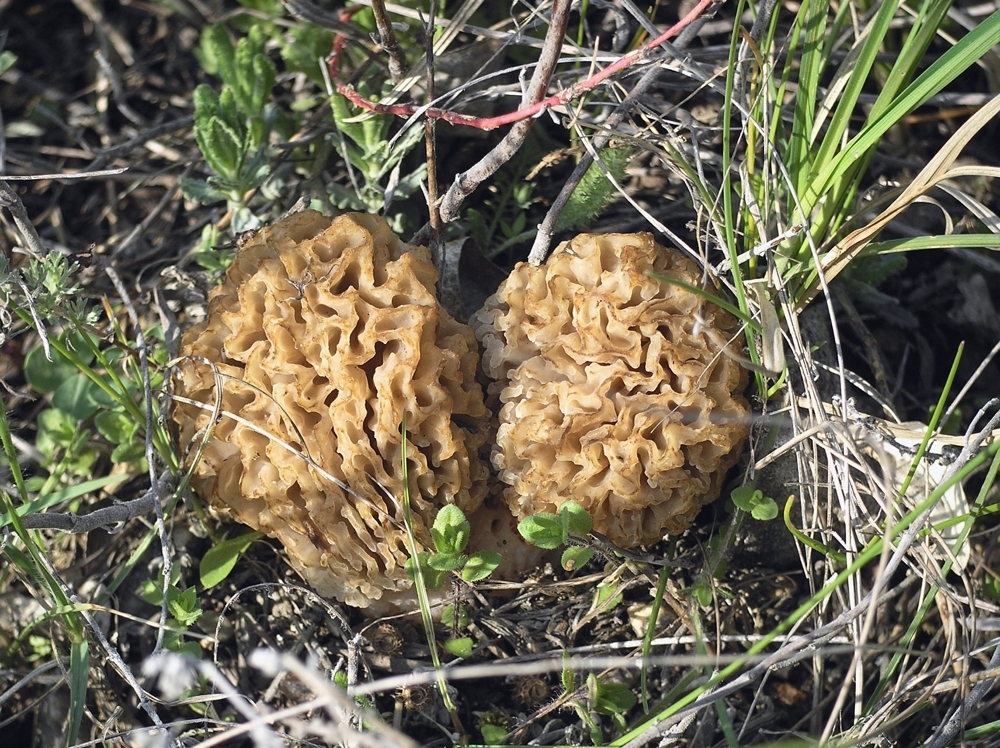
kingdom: Fungi
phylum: Ascomycota
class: Pezizomycetes
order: Pezizales
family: Morchellaceae
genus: Morchella
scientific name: Morchella steppicola
